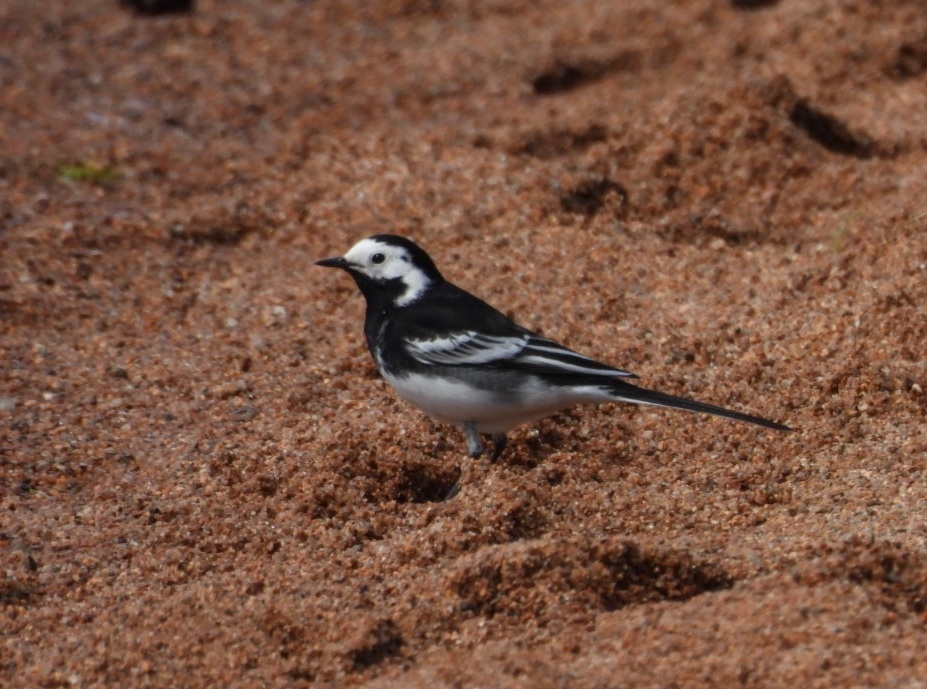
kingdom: Animalia
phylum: Chordata
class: Aves
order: Passeriformes
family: Motacillidae
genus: Motacilla
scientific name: Motacilla alba
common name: White wagtail
